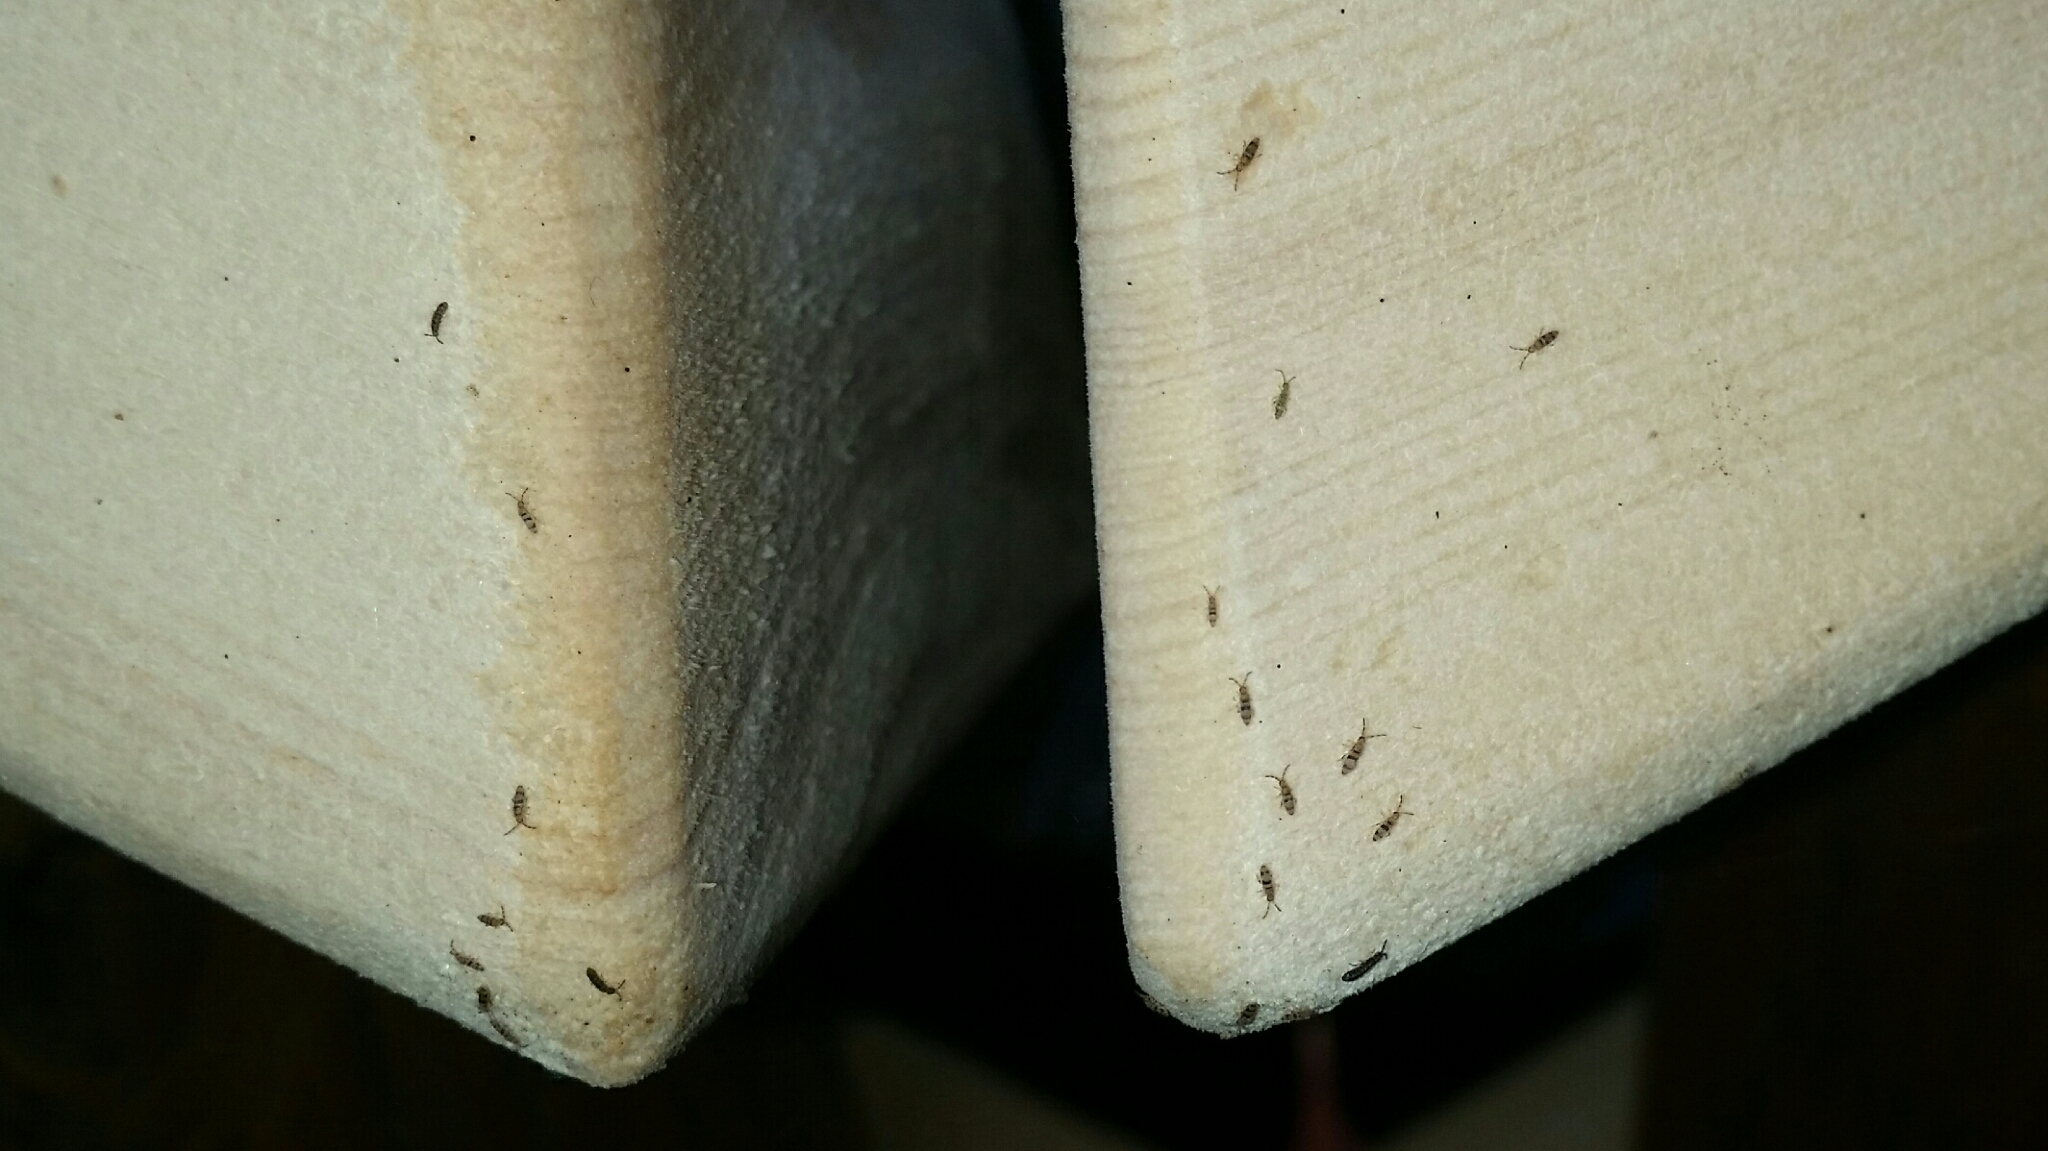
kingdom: Animalia
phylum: Arthropoda
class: Collembola
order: Entomobryomorpha
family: Entomobryidae
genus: Entomobrya
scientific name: Entomobrya triangularis
